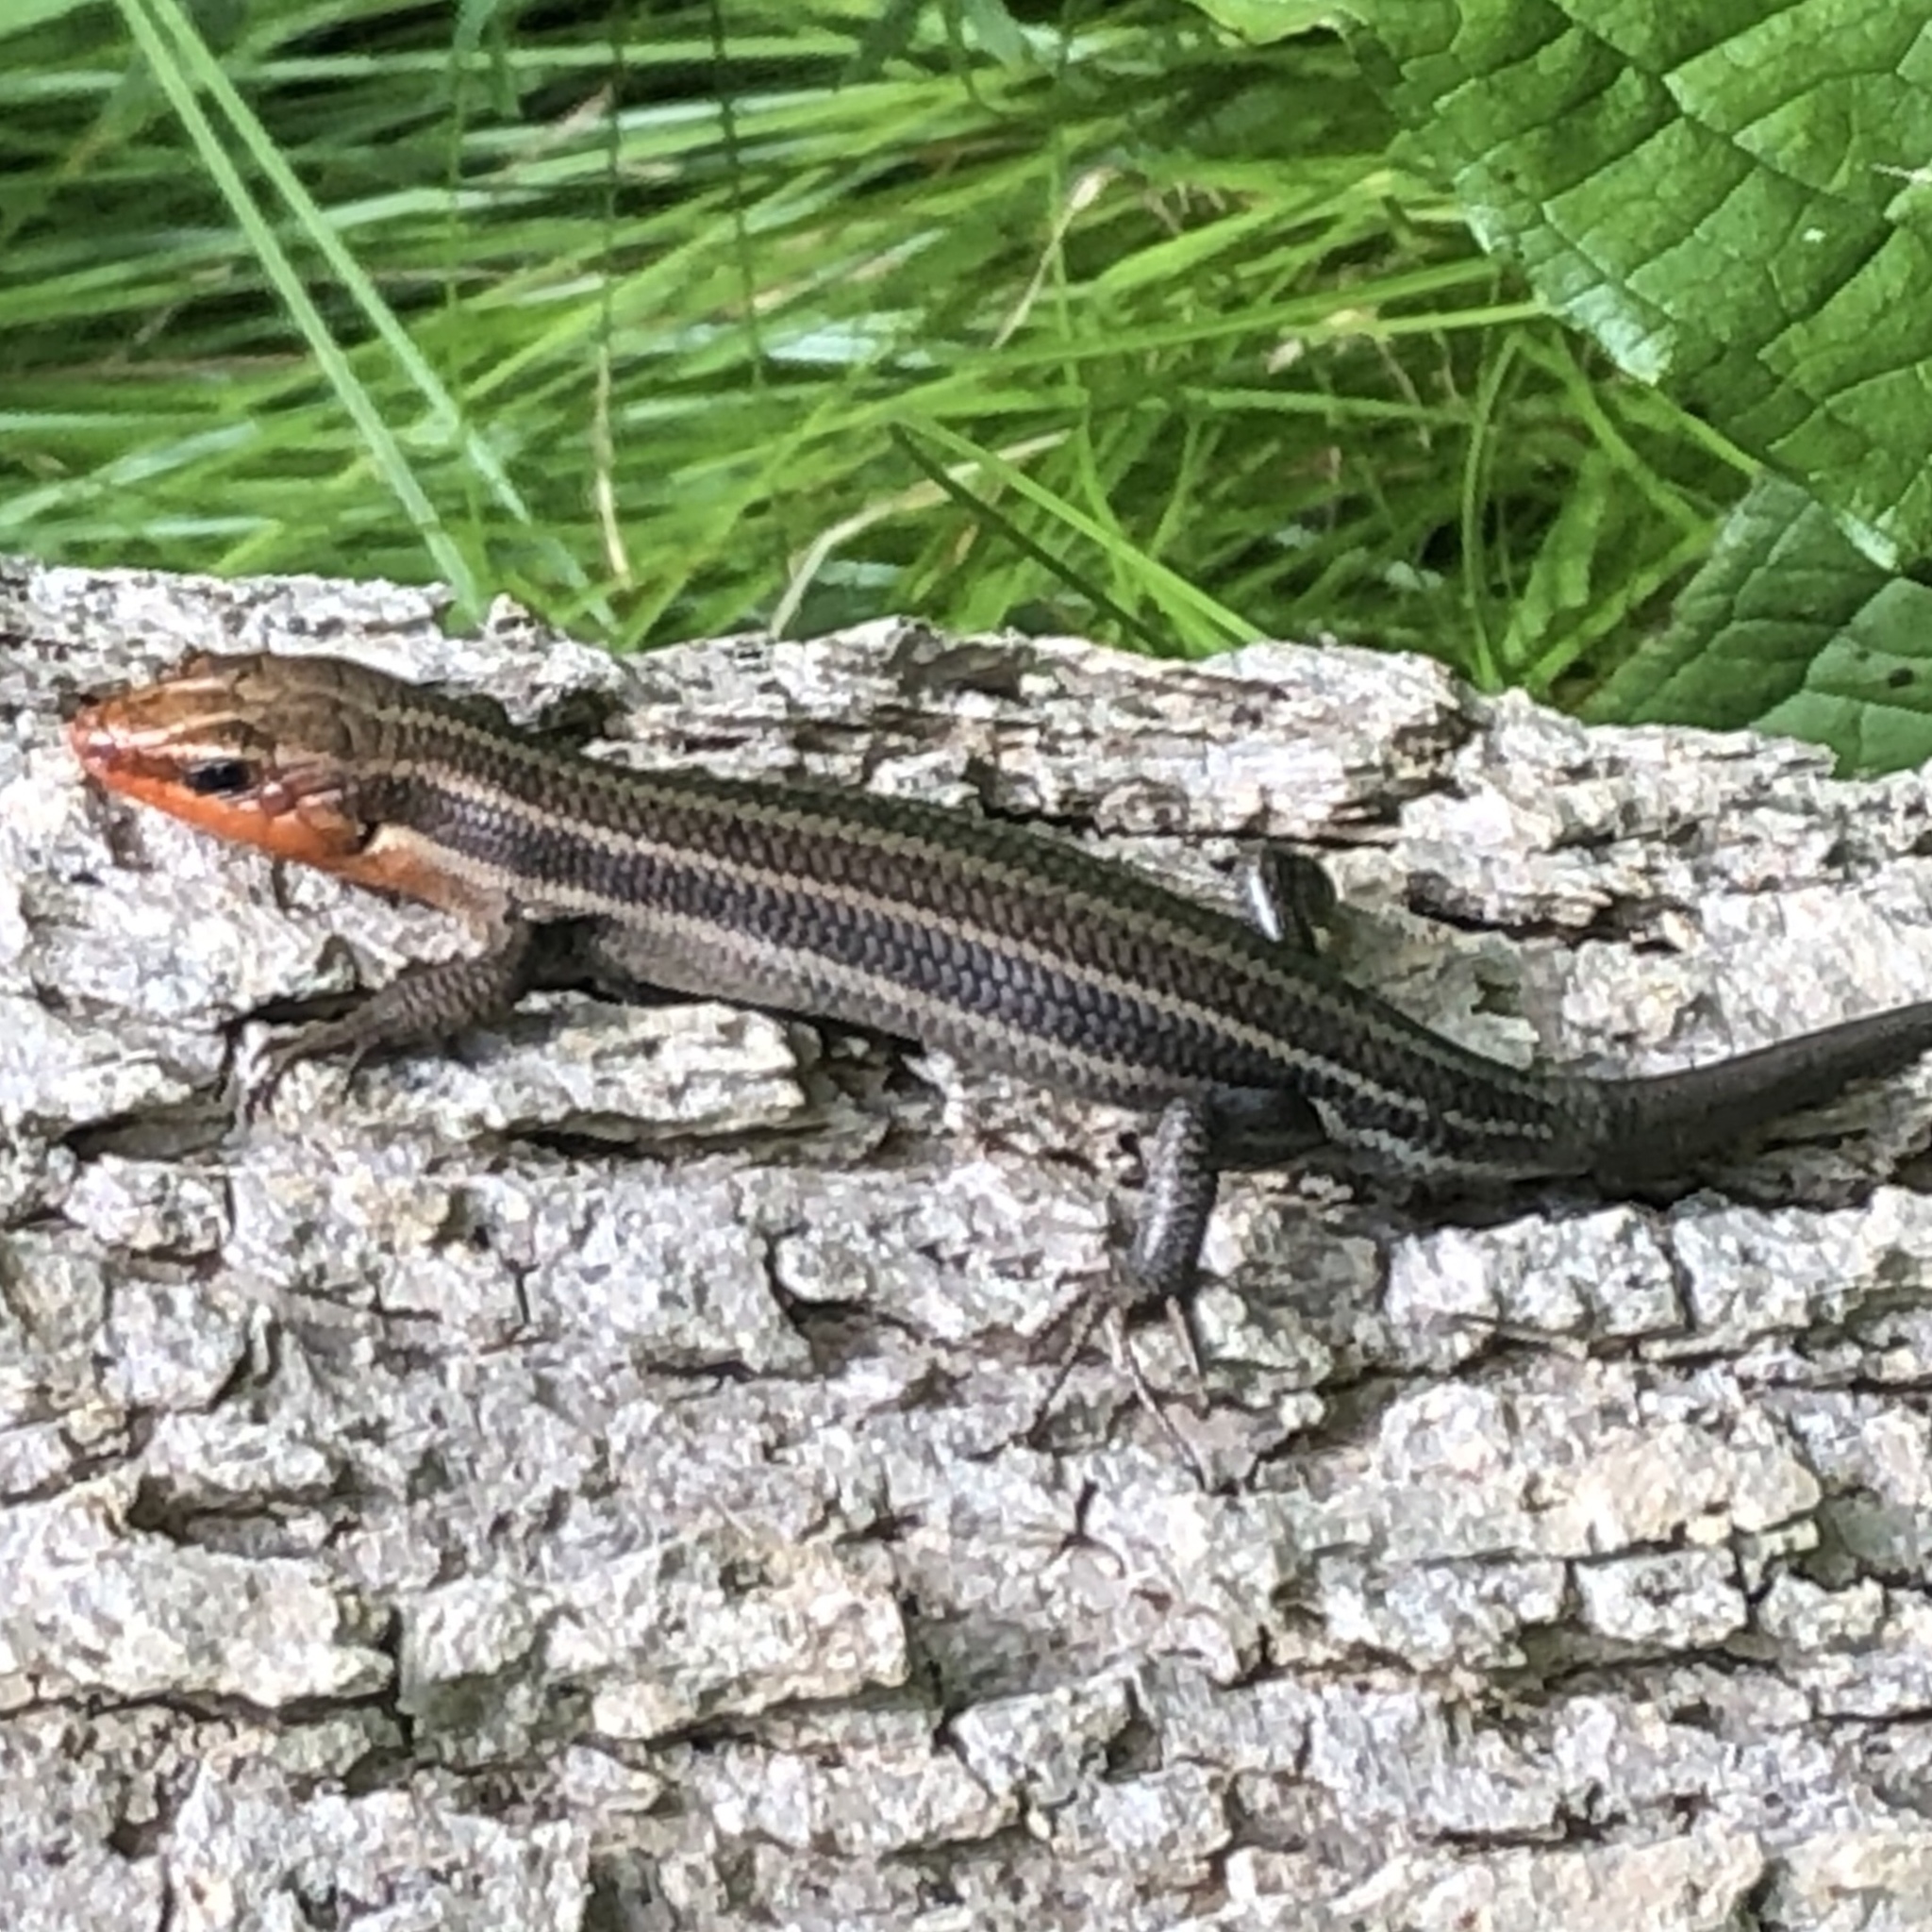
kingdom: Animalia
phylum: Chordata
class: Squamata
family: Scincidae
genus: Plestiodon
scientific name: Plestiodon fasciatus
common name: Five-lined skink
